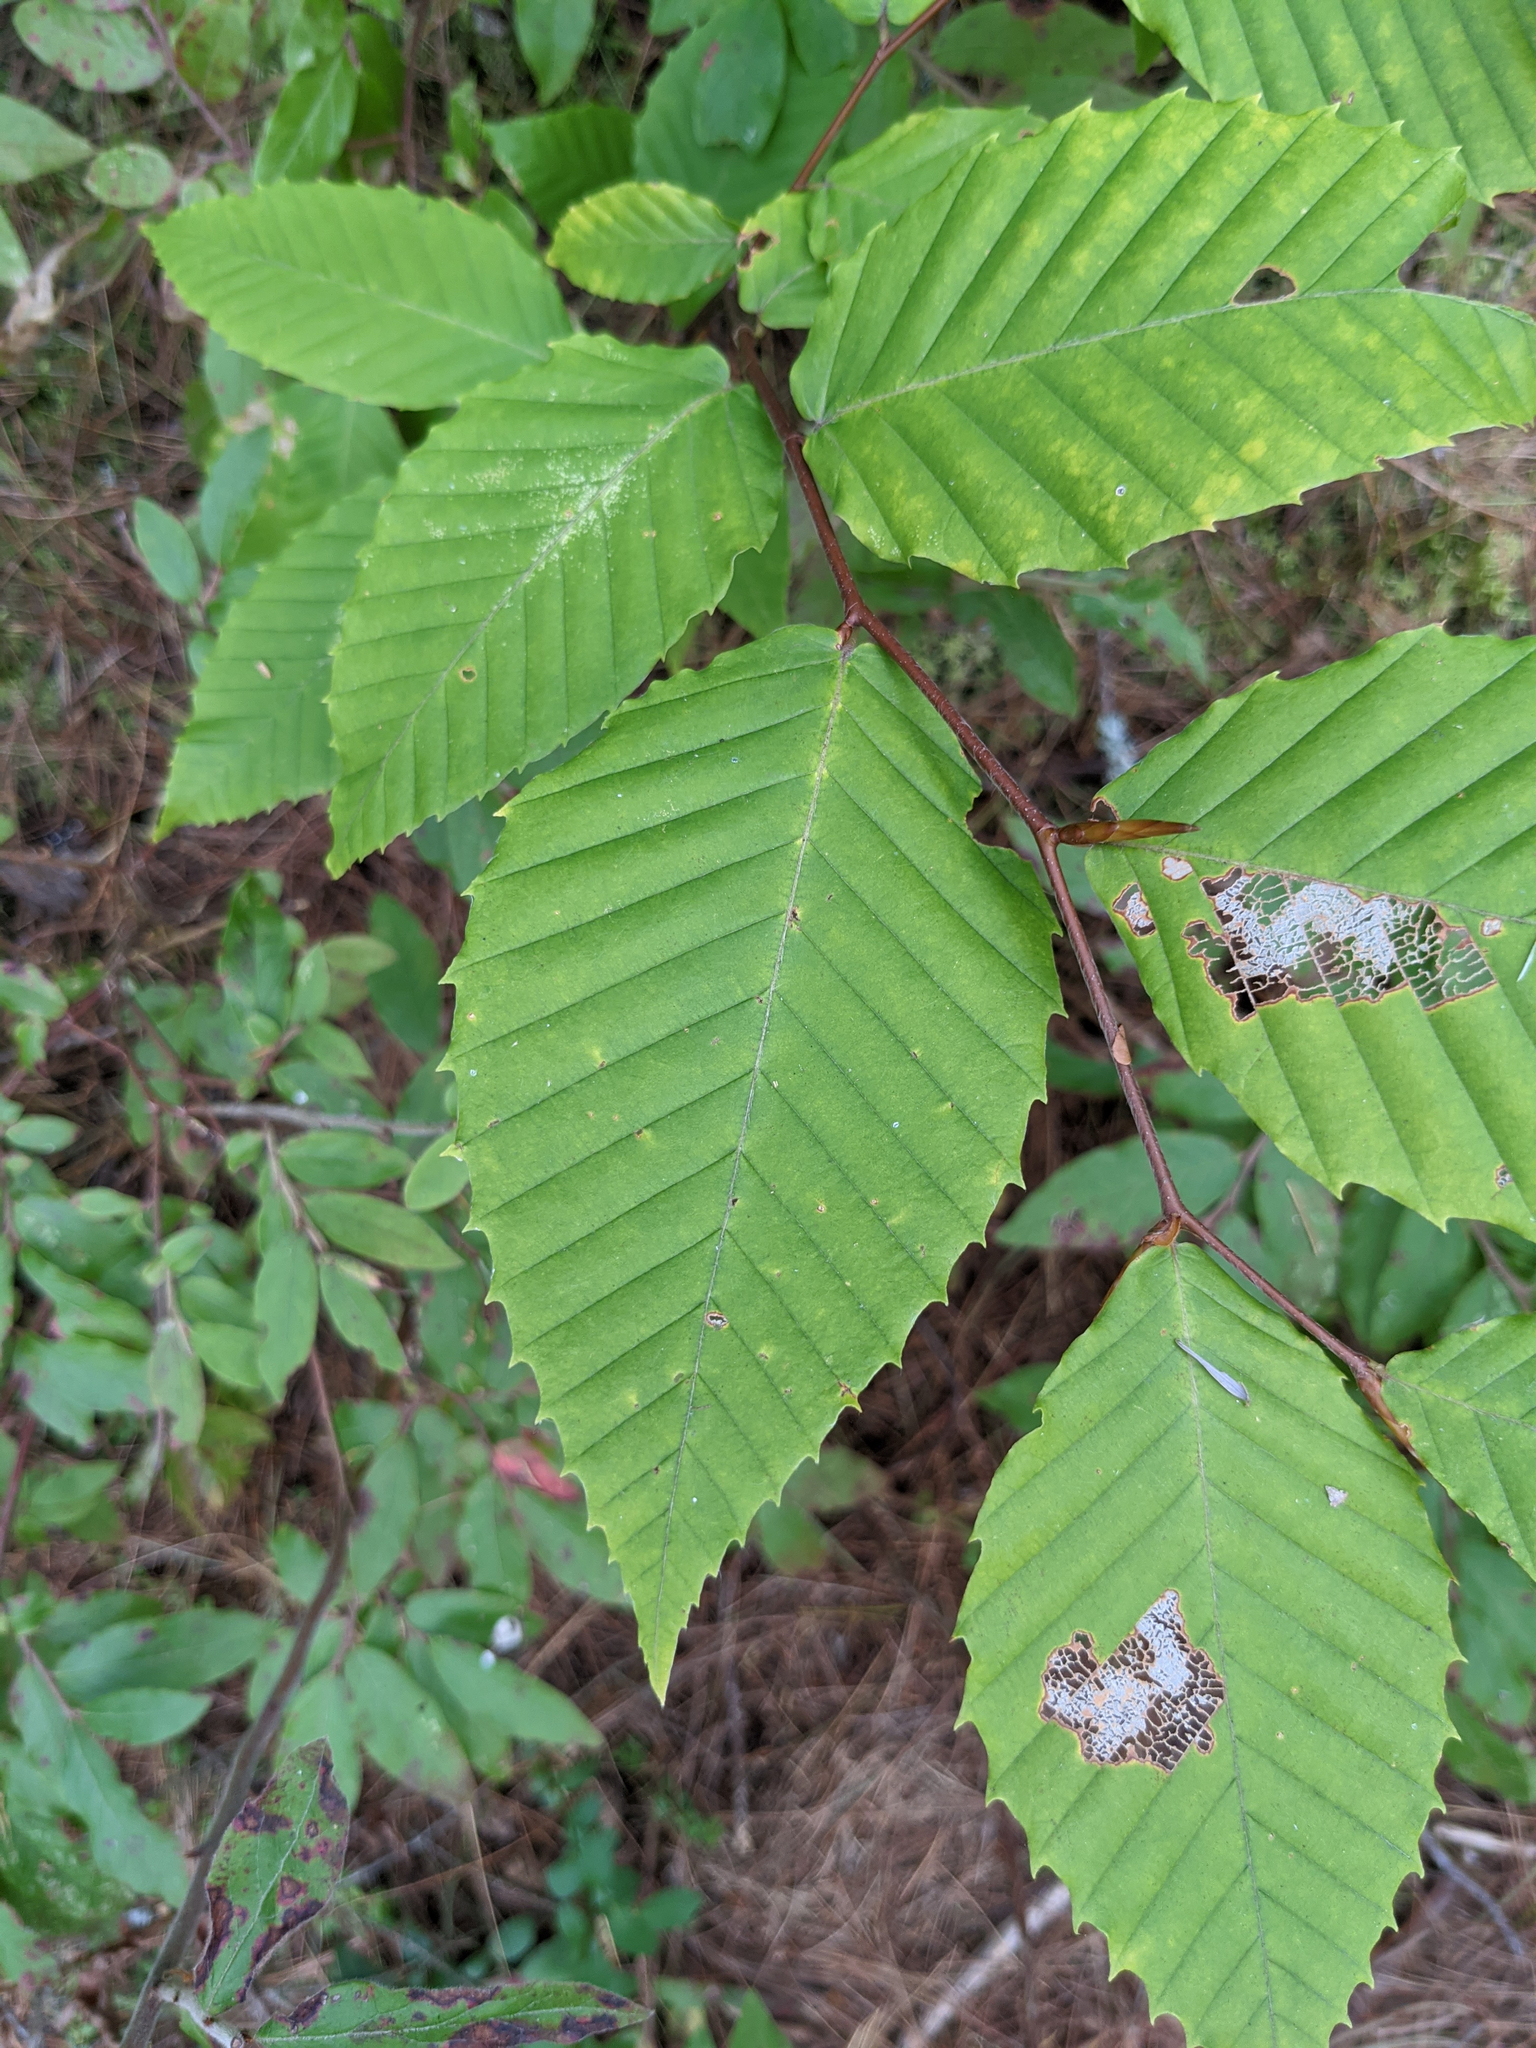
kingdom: Plantae
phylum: Tracheophyta
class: Magnoliopsida
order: Fagales
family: Fagaceae
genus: Fagus
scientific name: Fagus grandifolia
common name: American beech
